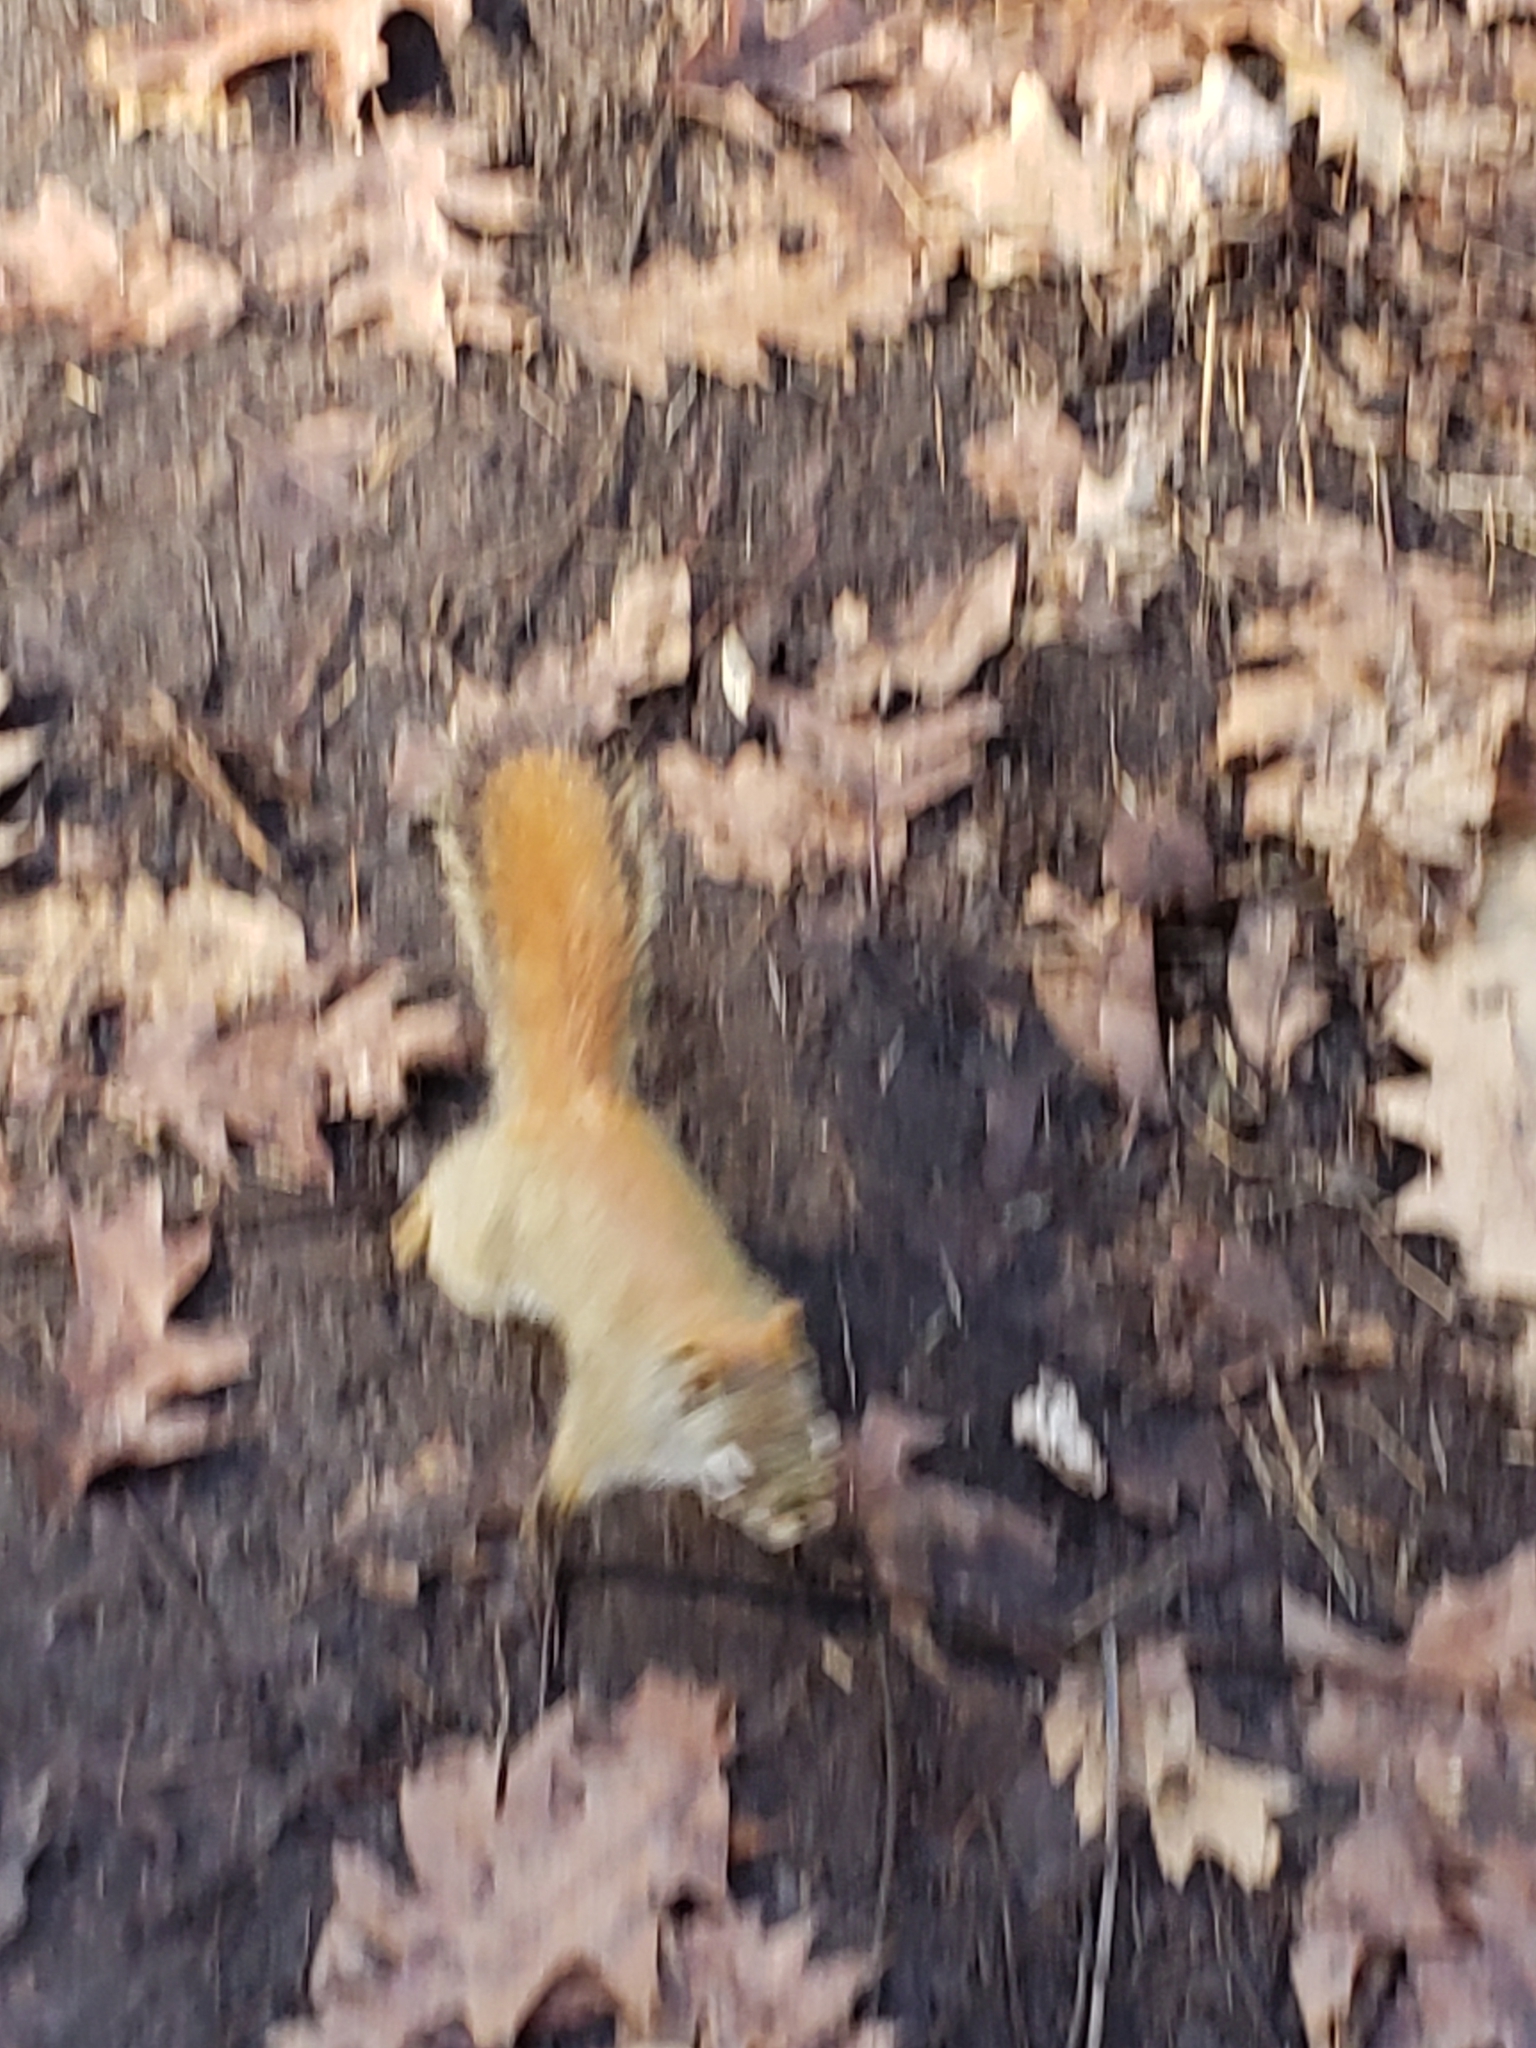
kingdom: Animalia
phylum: Chordata
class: Mammalia
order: Rodentia
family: Sciuridae
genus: Tamiasciurus
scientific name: Tamiasciurus hudsonicus
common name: Red squirrel
